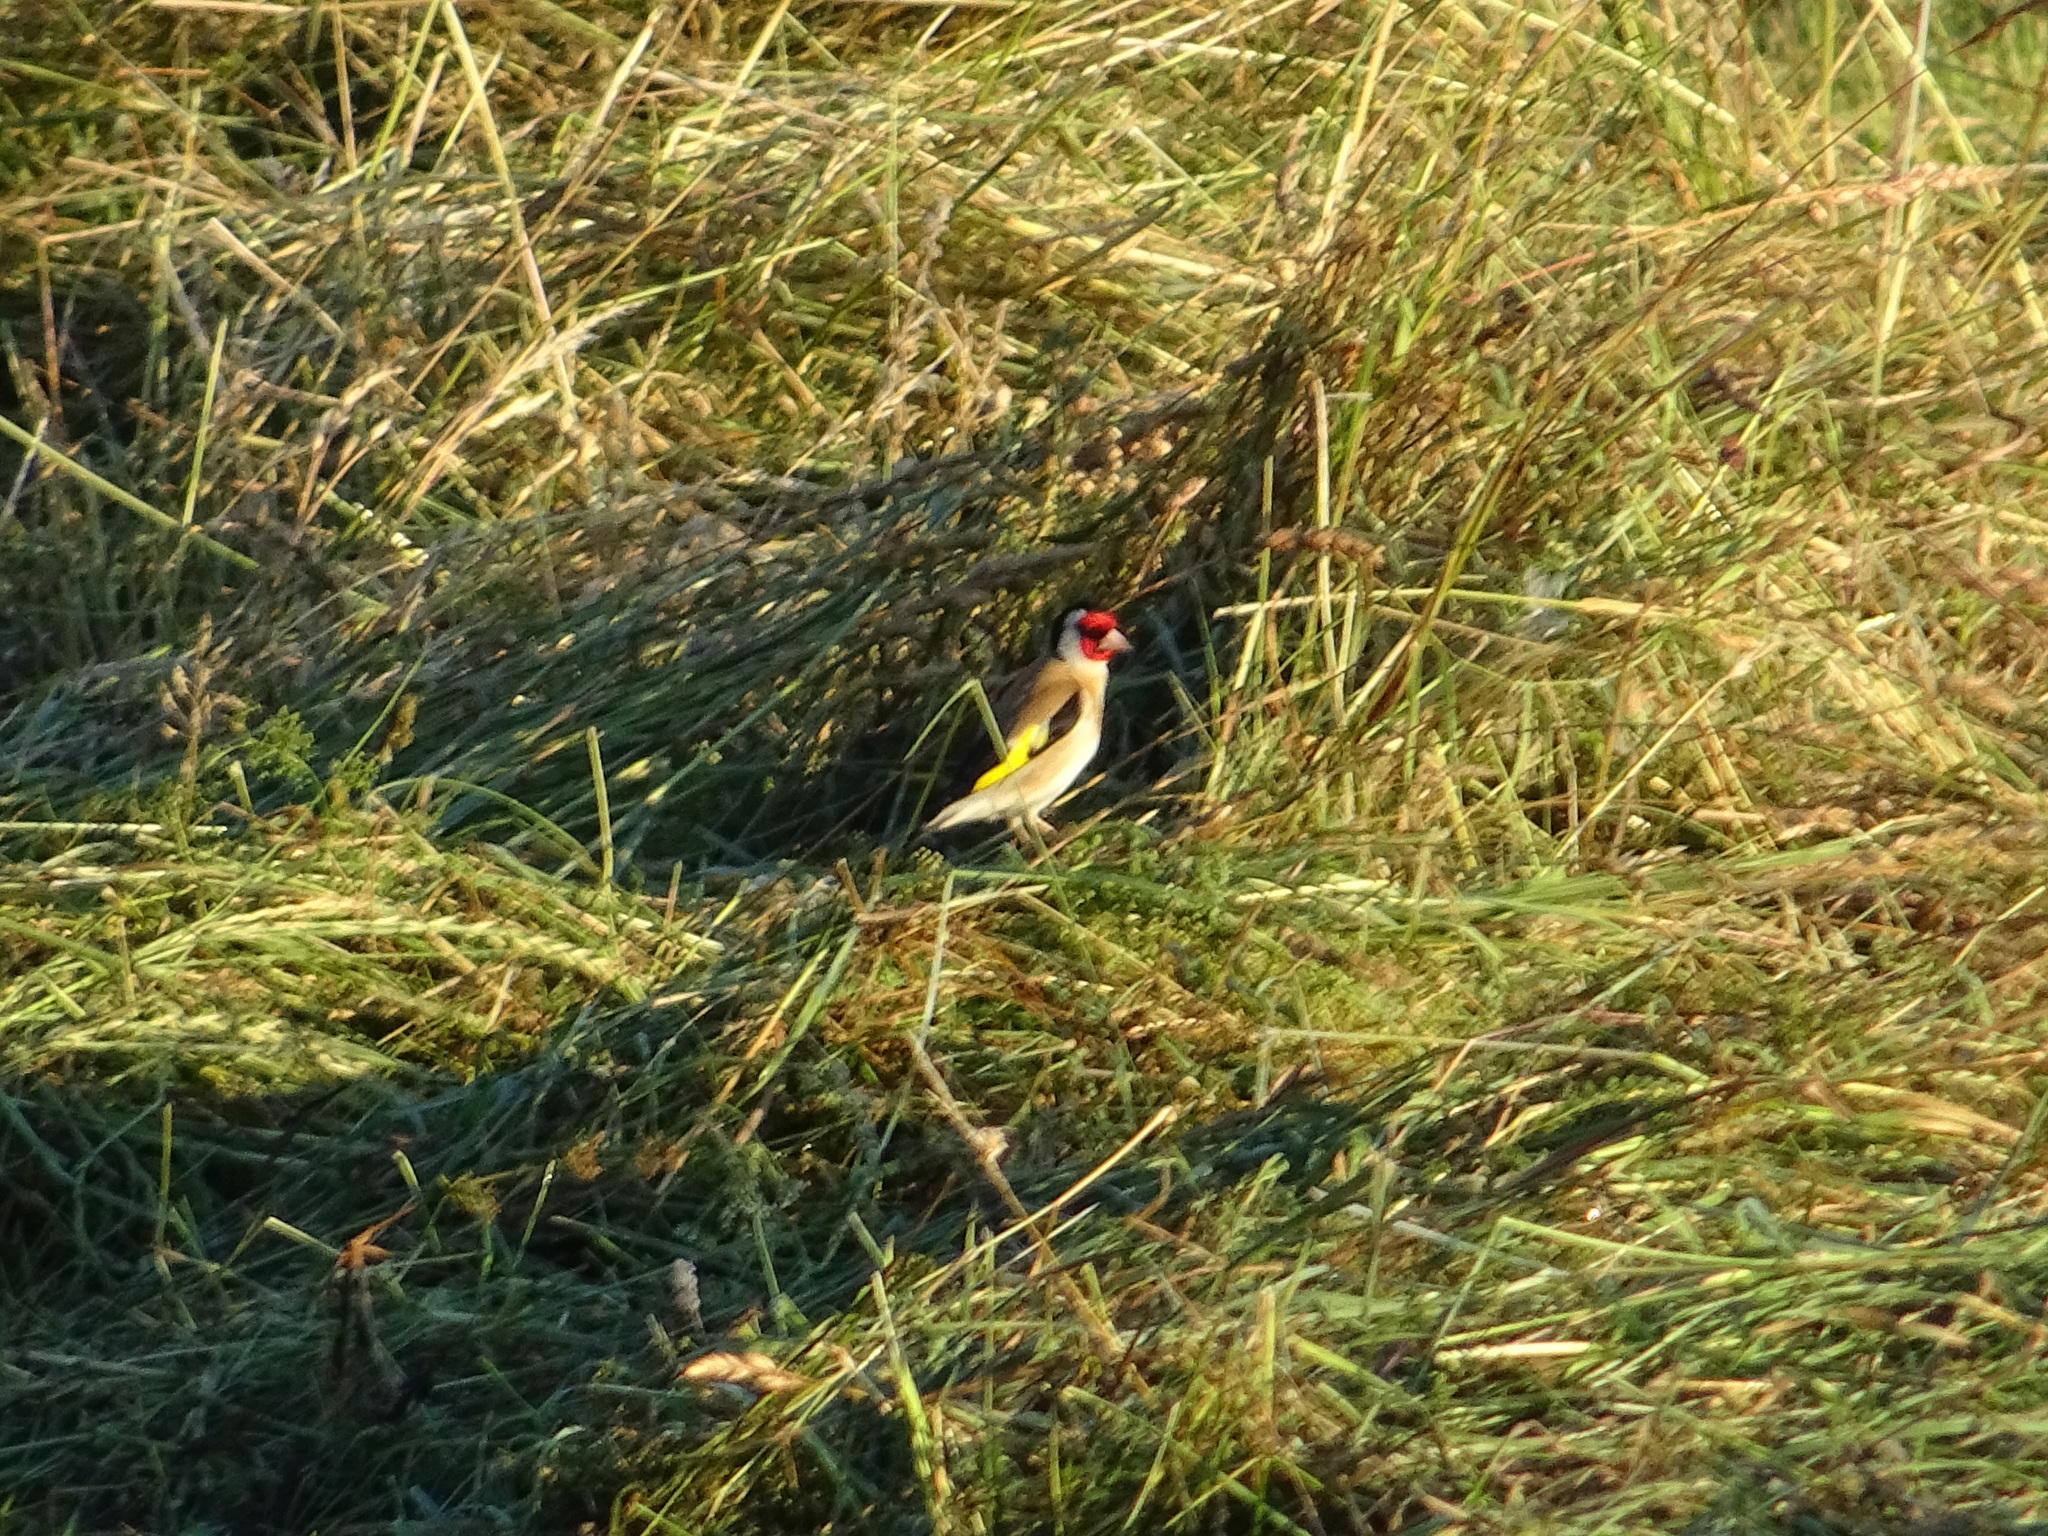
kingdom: Animalia
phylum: Chordata
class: Aves
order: Passeriformes
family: Fringillidae
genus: Carduelis
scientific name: Carduelis carduelis
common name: European goldfinch
